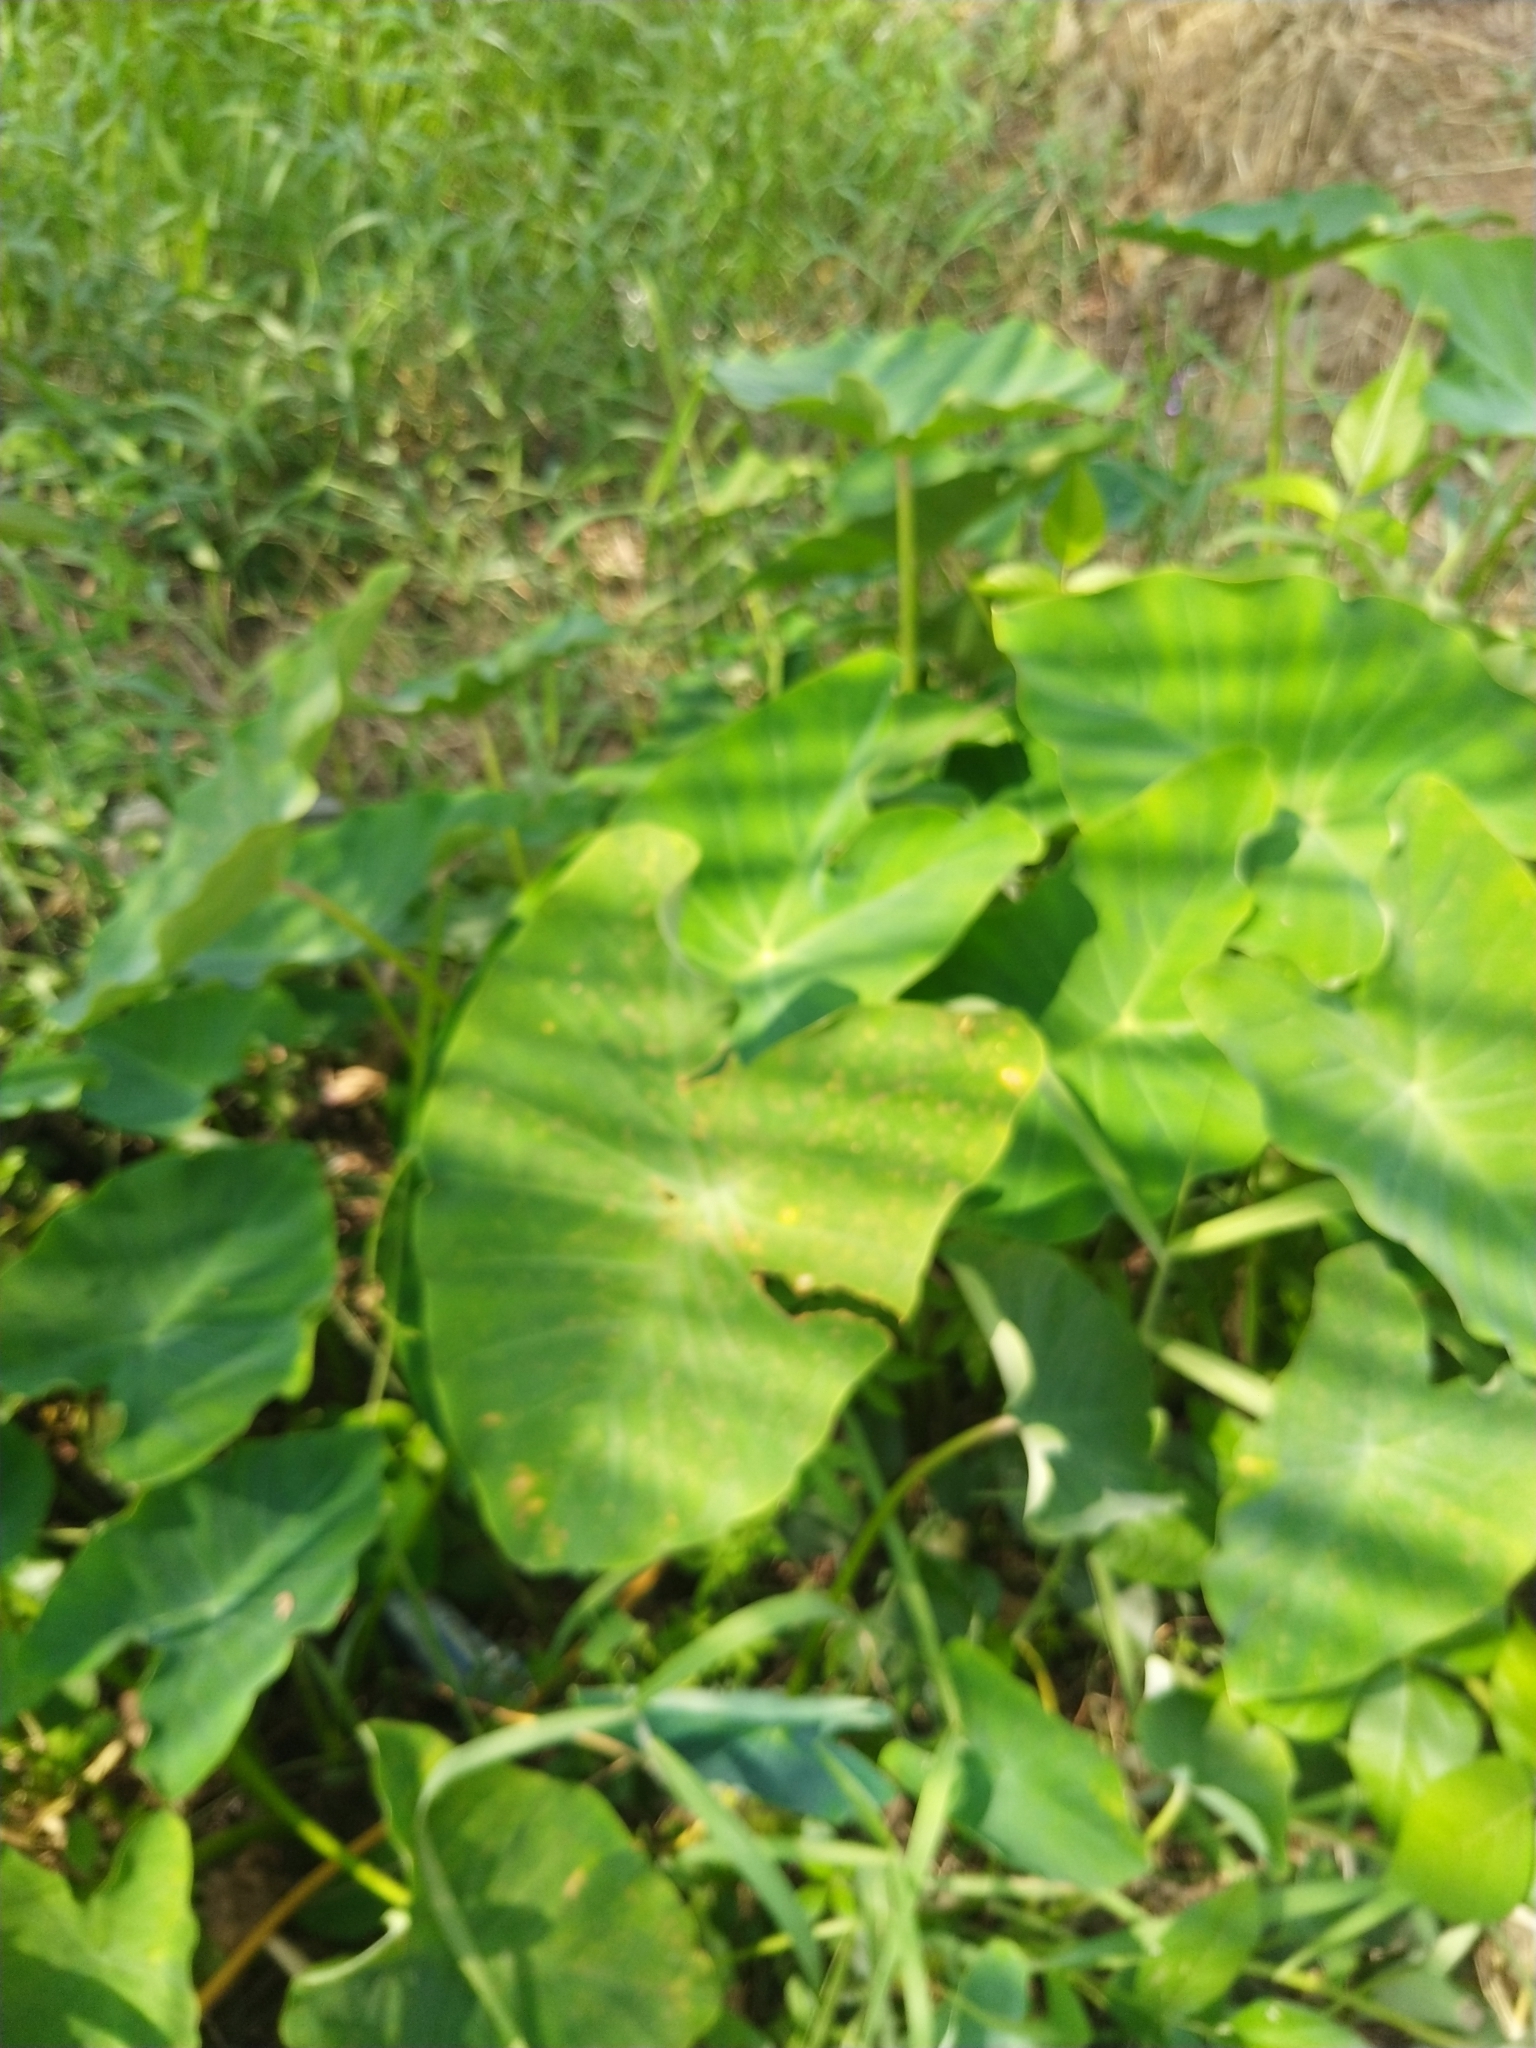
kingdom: Plantae
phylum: Tracheophyta
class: Liliopsida
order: Alismatales
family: Araceae
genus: Colocasia
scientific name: Colocasia esculenta
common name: Taro
